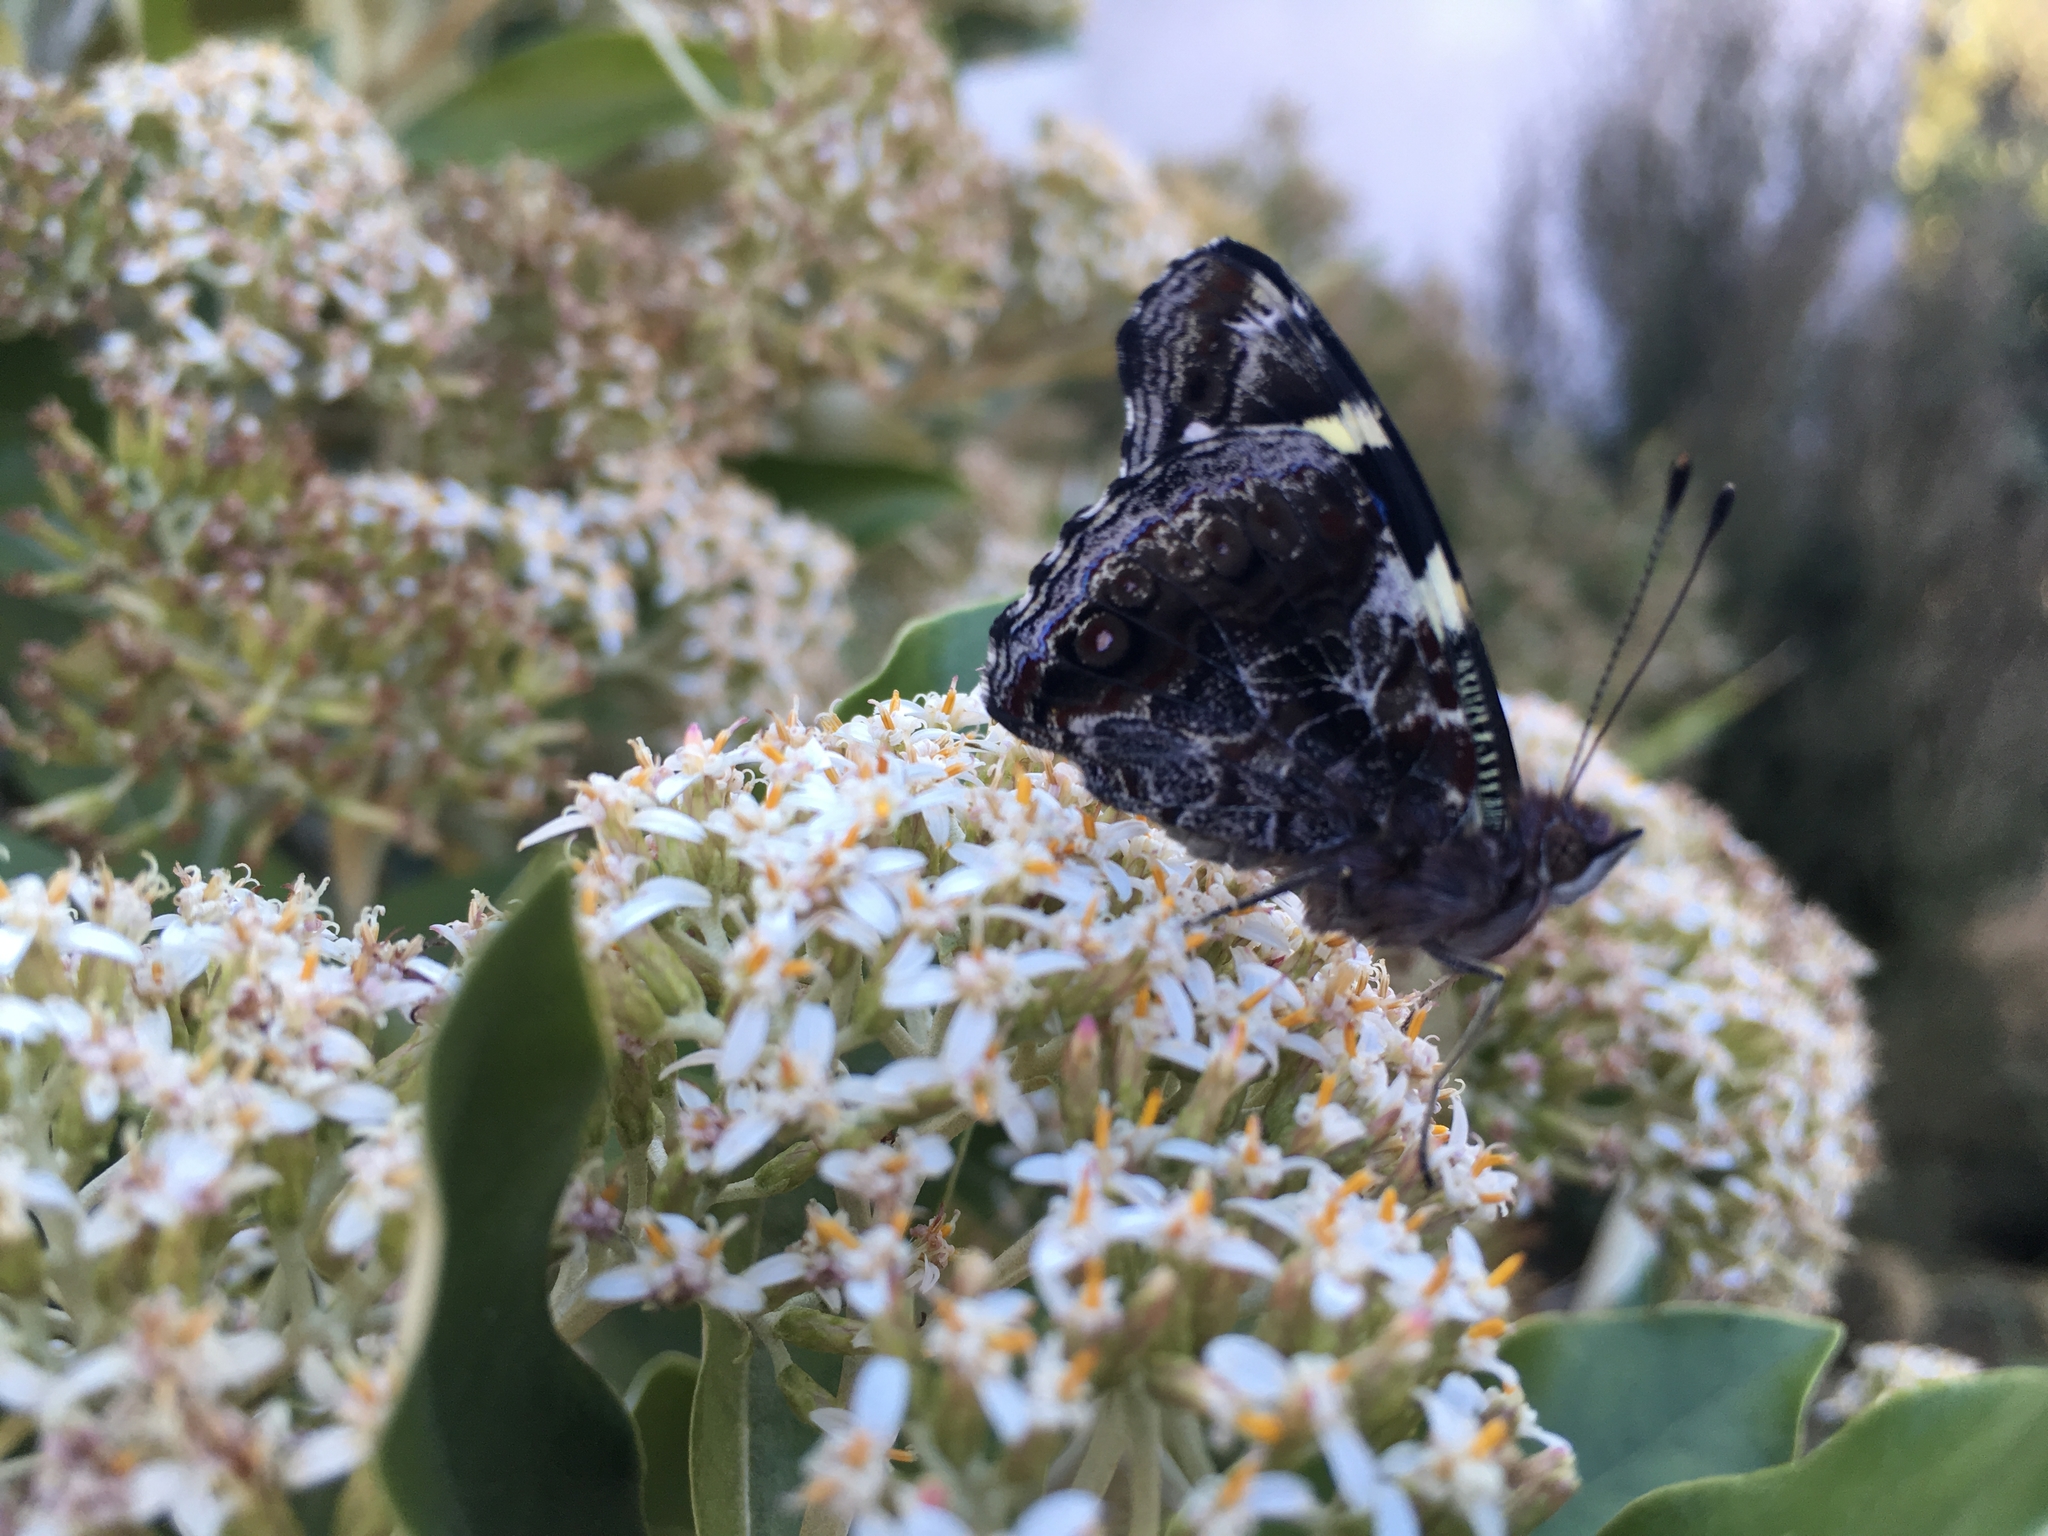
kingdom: Animalia
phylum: Arthropoda
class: Insecta
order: Lepidoptera
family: Nymphalidae
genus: Vanessa
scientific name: Vanessa itea
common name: Yellow admiral
